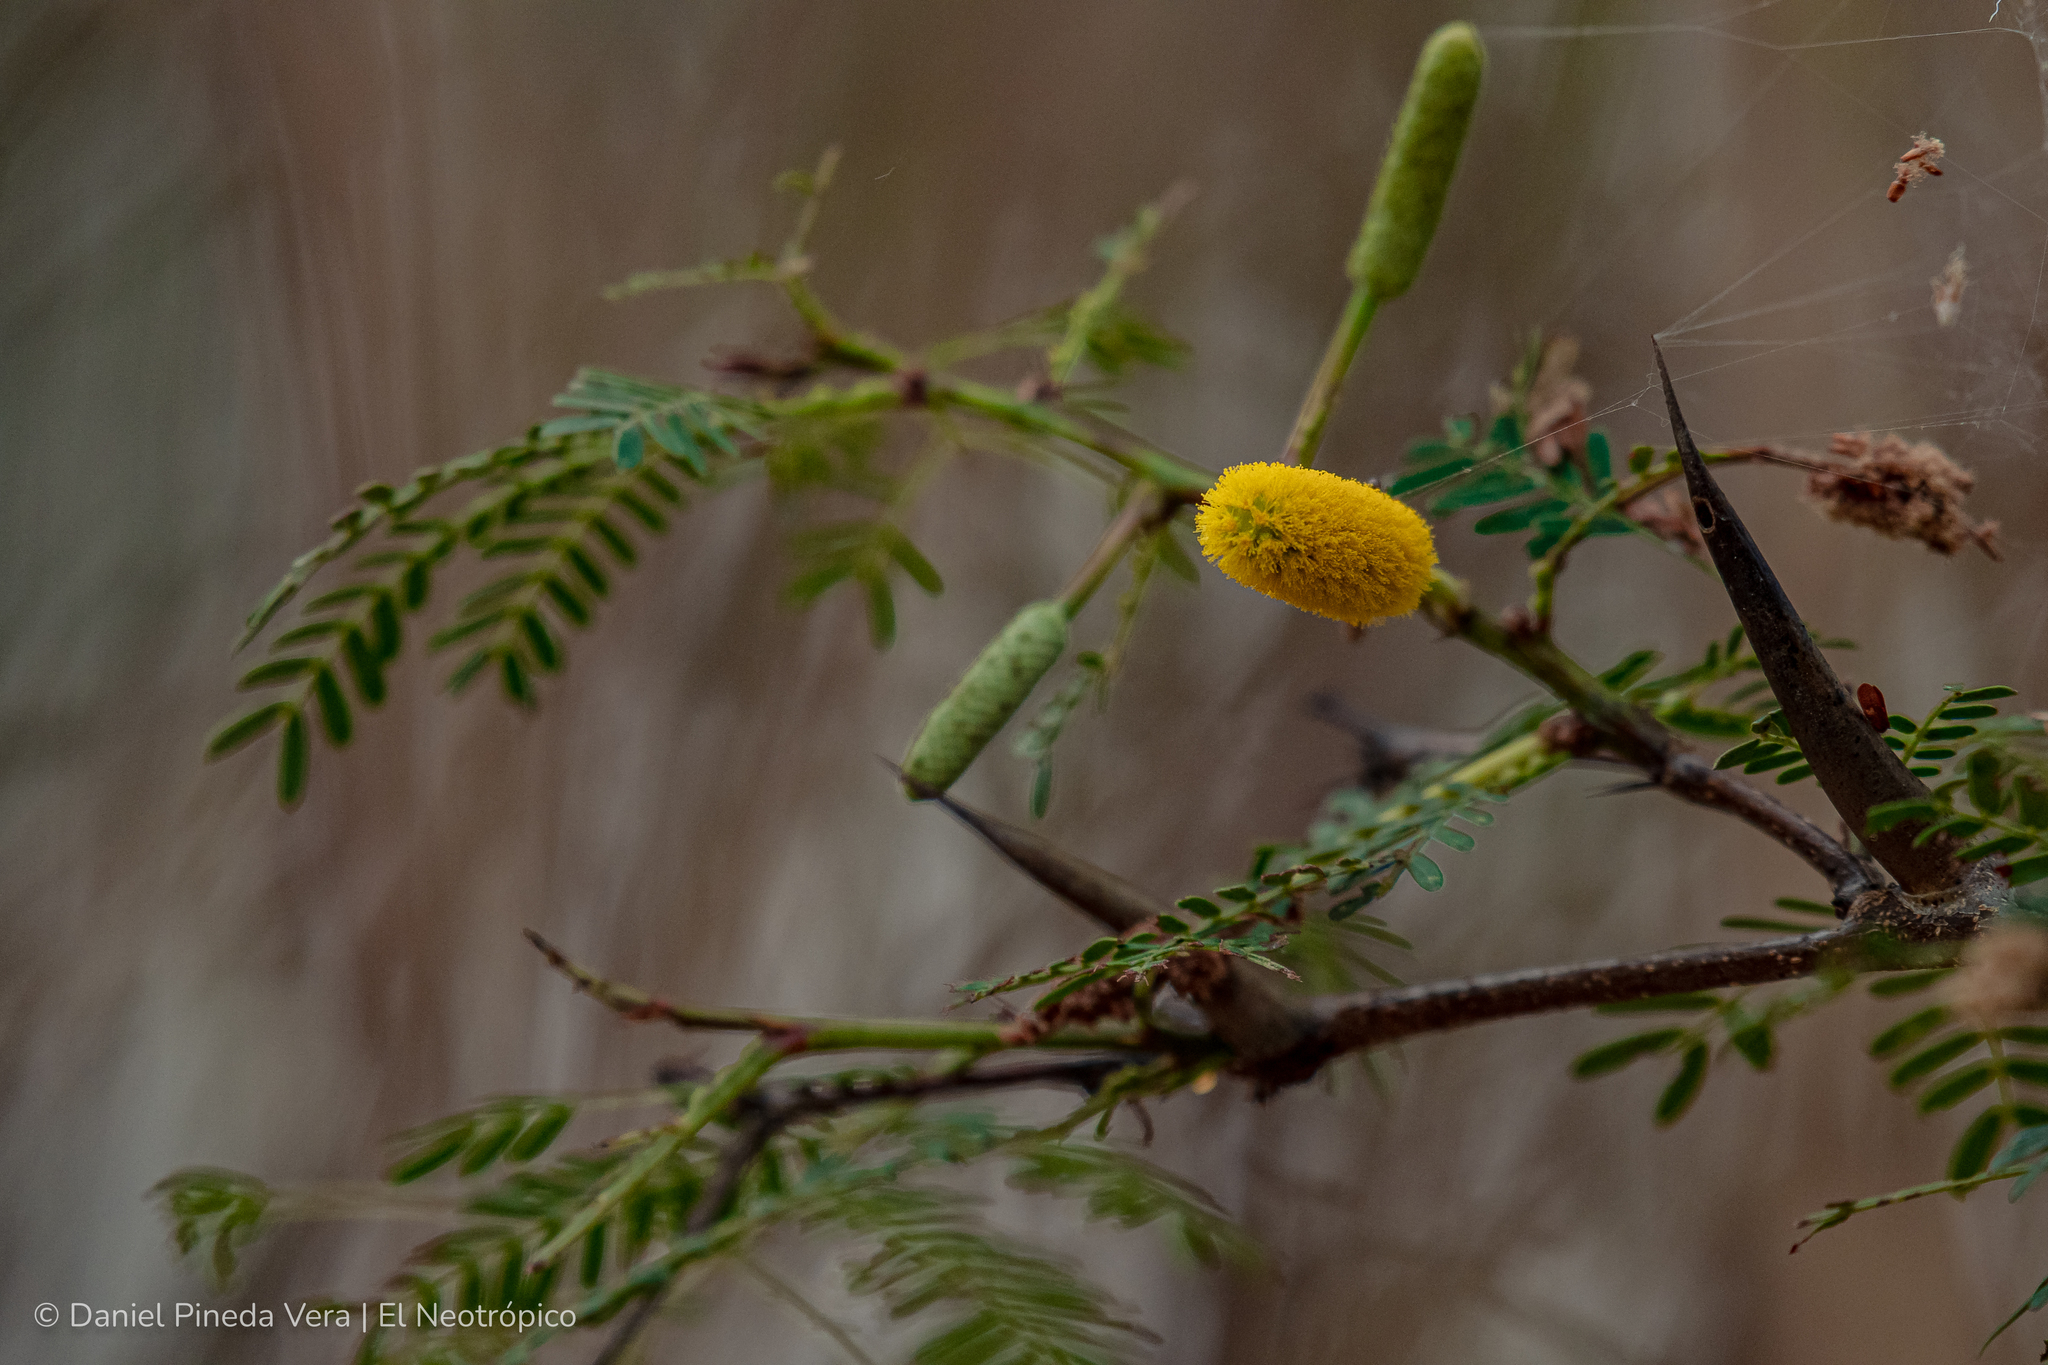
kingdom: Plantae
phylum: Tracheophyta
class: Magnoliopsida
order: Fabales
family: Fabaceae
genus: Vachellia
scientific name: Vachellia cornigera
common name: Bullhorn wattle
